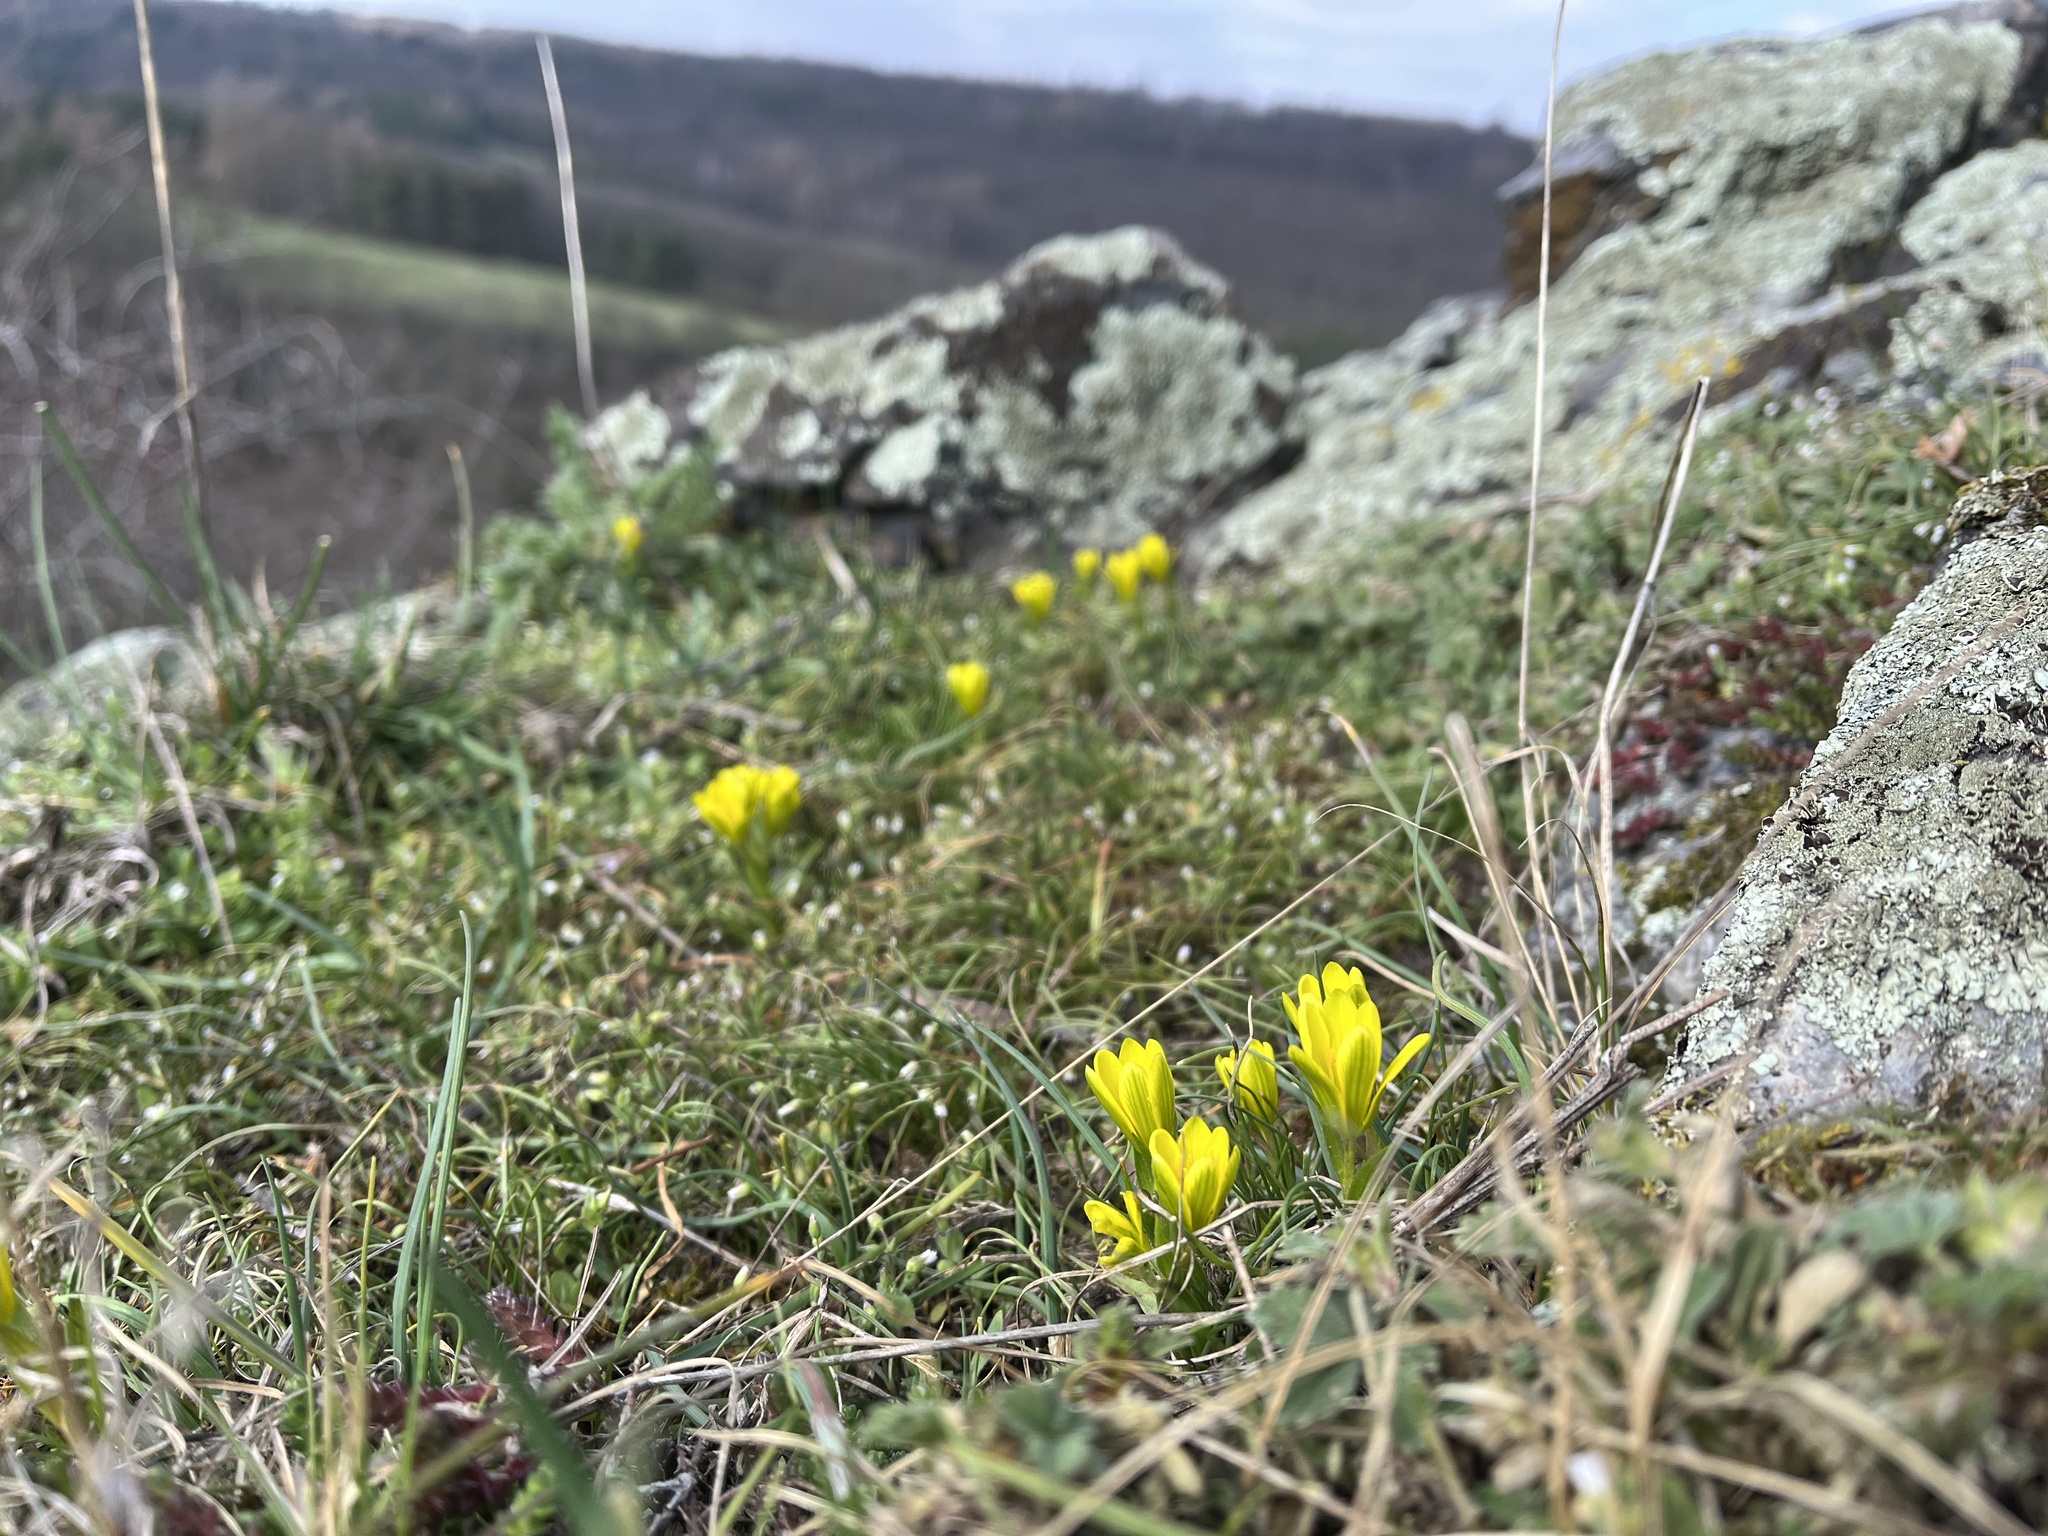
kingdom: Plantae
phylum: Tracheophyta
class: Liliopsida
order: Liliales
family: Liliaceae
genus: Gagea
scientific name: Gagea bohemica
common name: Early star-of-bethlehem
